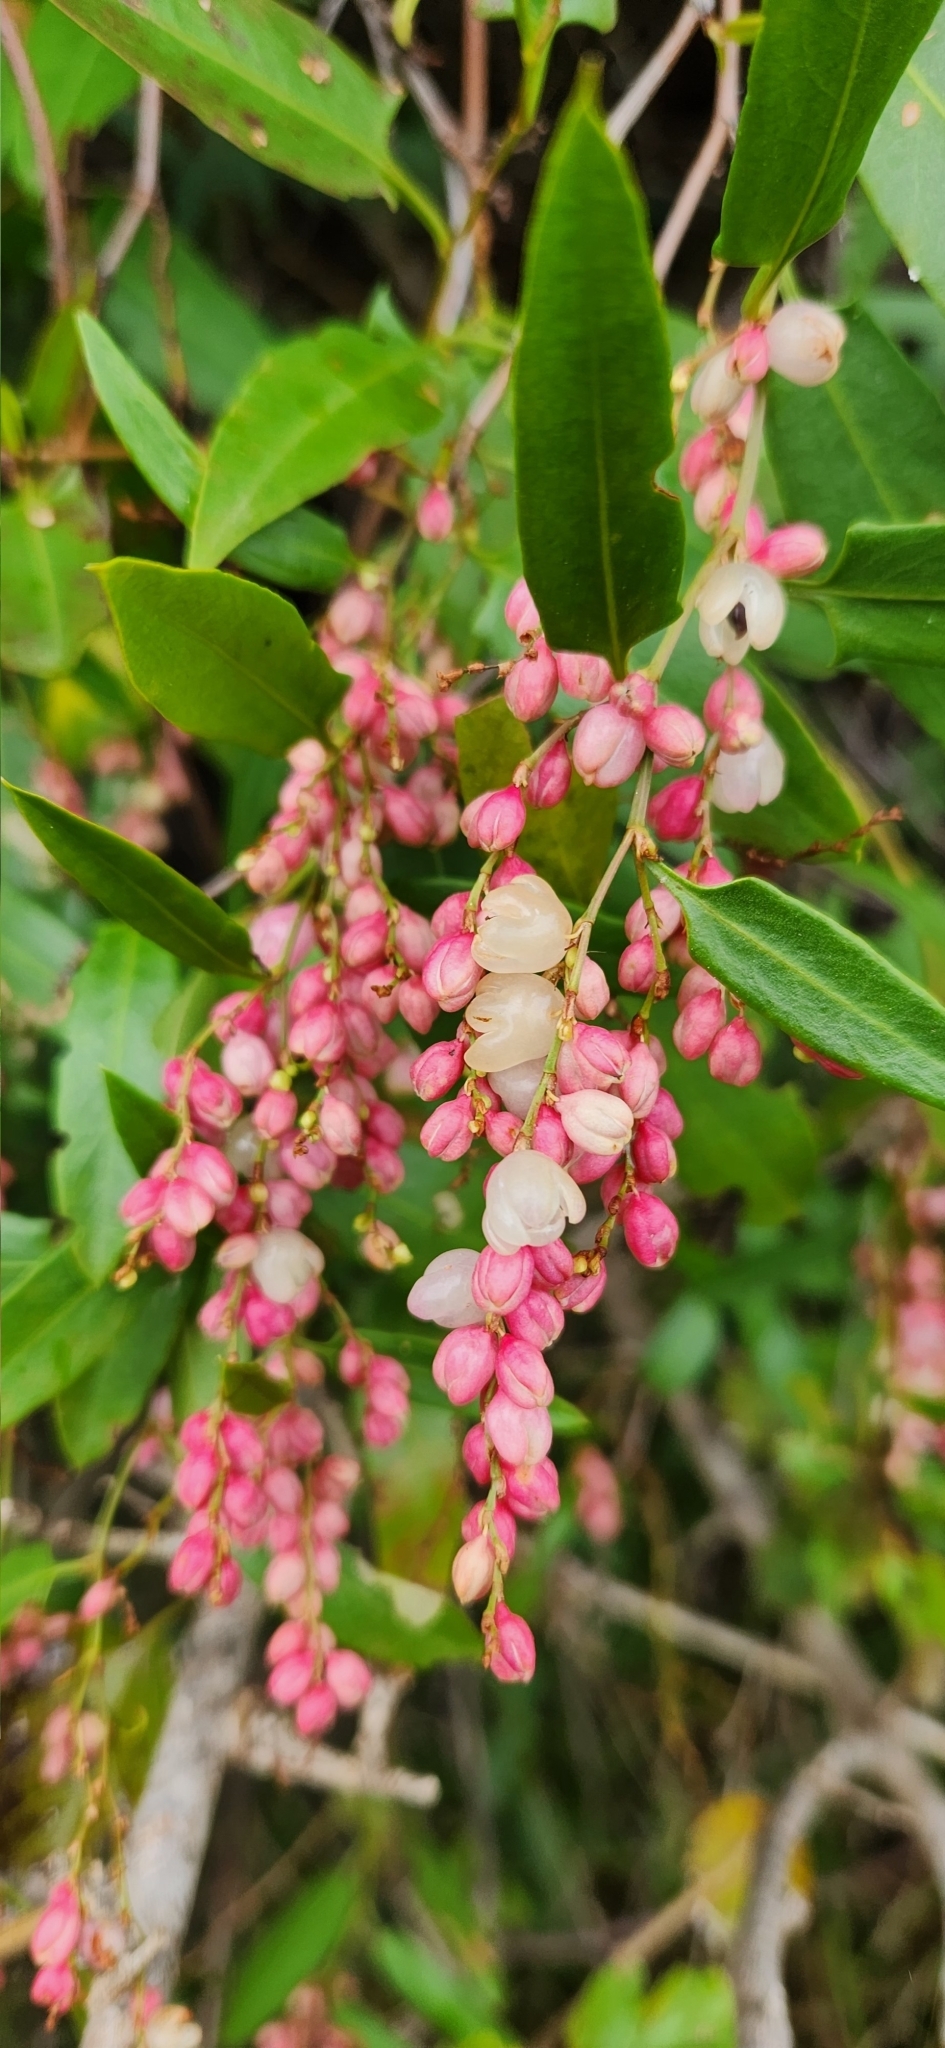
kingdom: Plantae
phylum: Tracheophyta
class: Magnoliopsida
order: Caryophyllales
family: Polygonaceae
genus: Muehlenbeckia
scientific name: Muehlenbeckia sagittifolia
